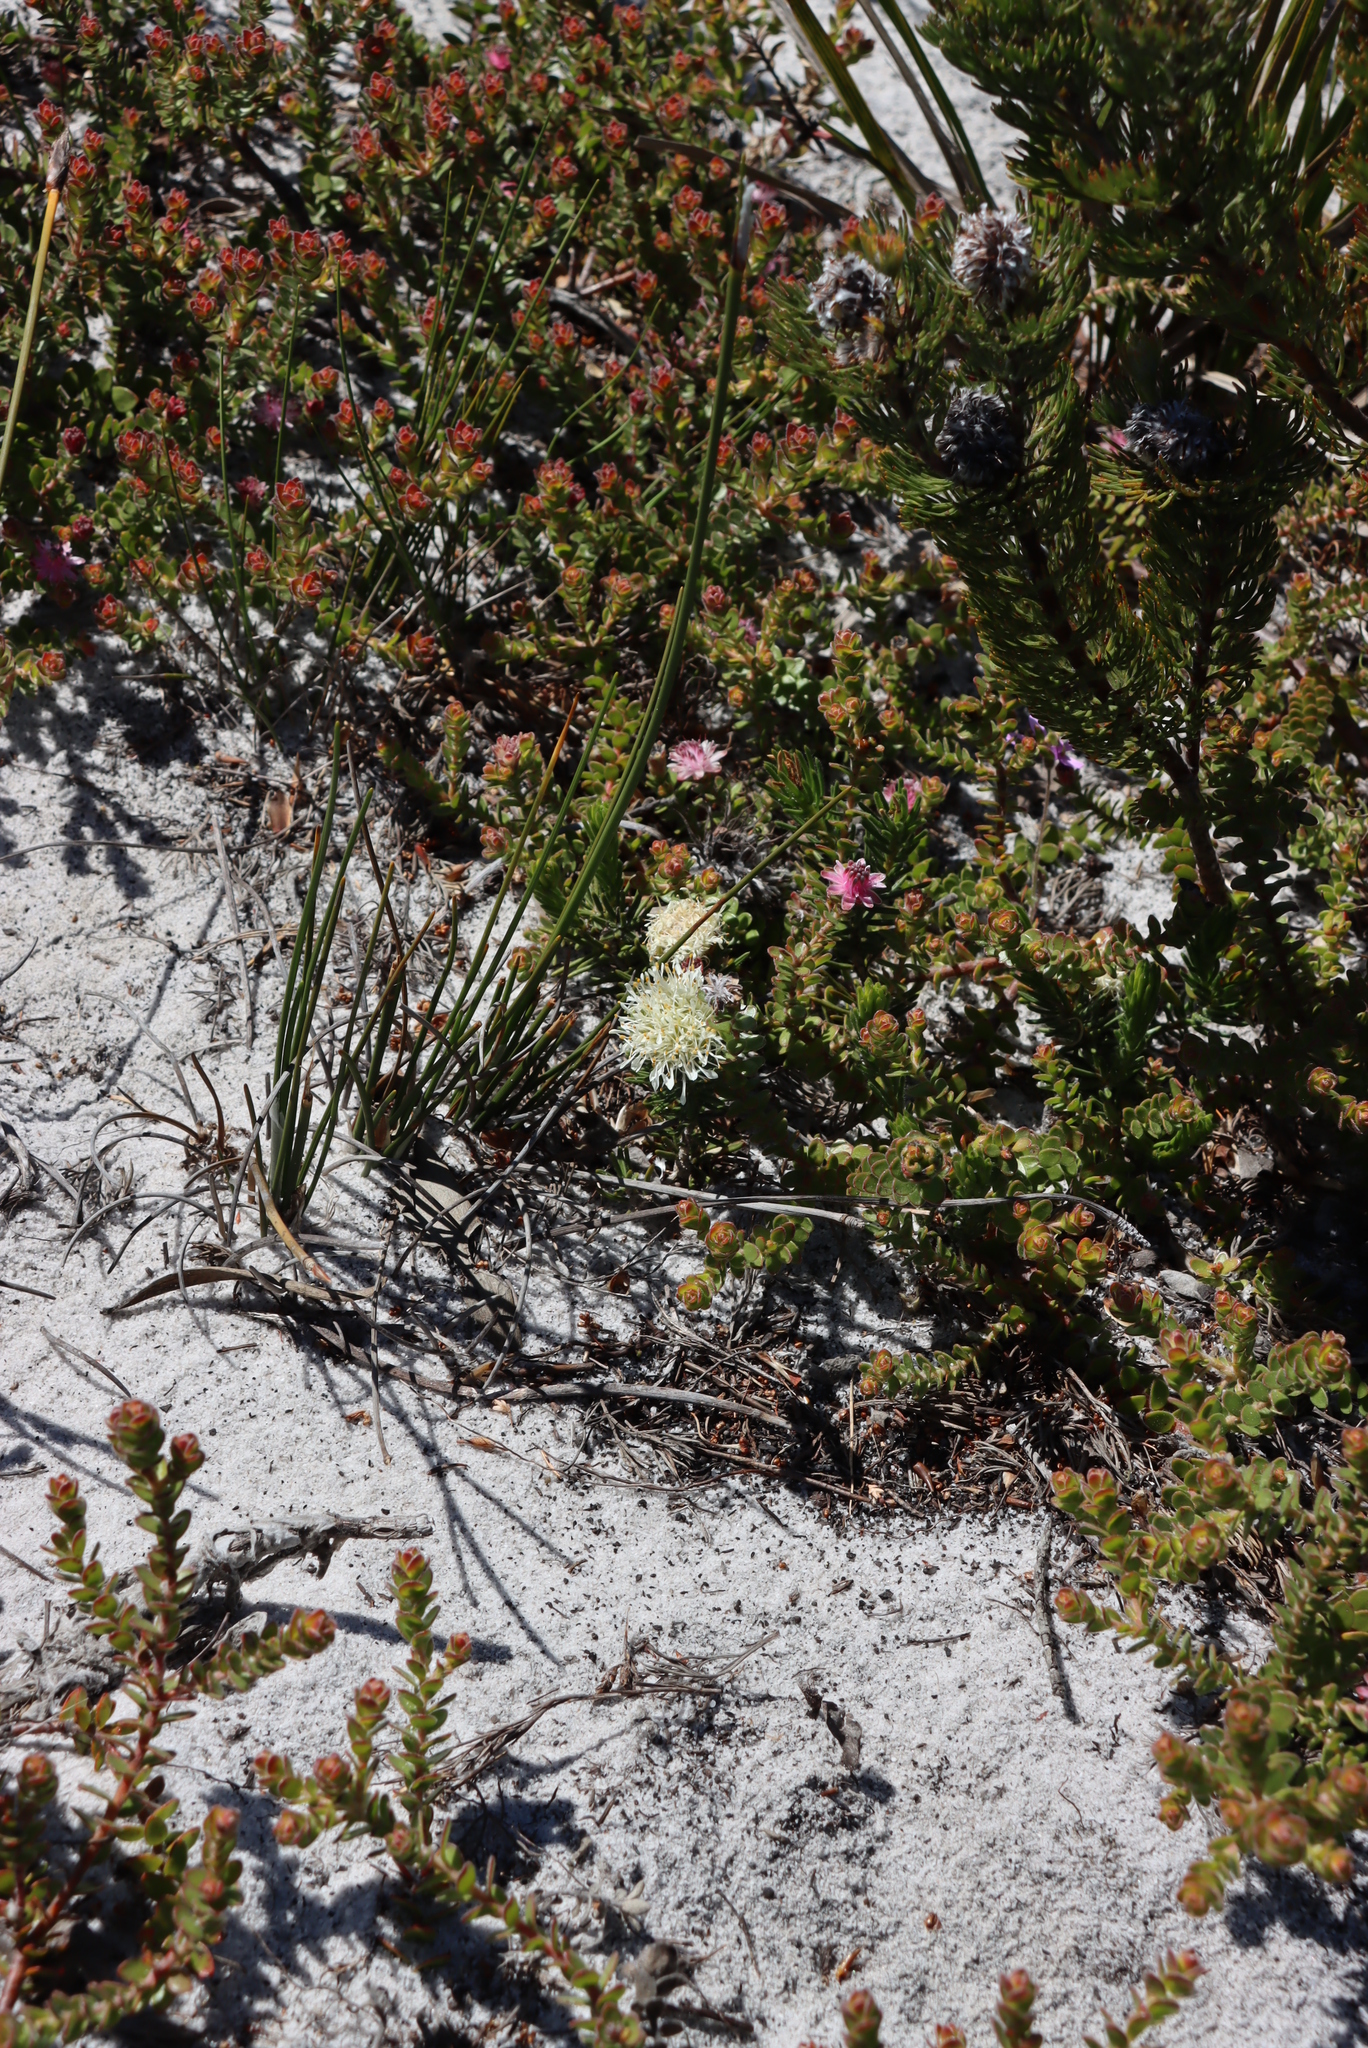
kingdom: Plantae
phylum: Tracheophyta
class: Magnoliopsida
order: Sapindales
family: Rutaceae
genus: Agathosma
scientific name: Agathosma hookeri
